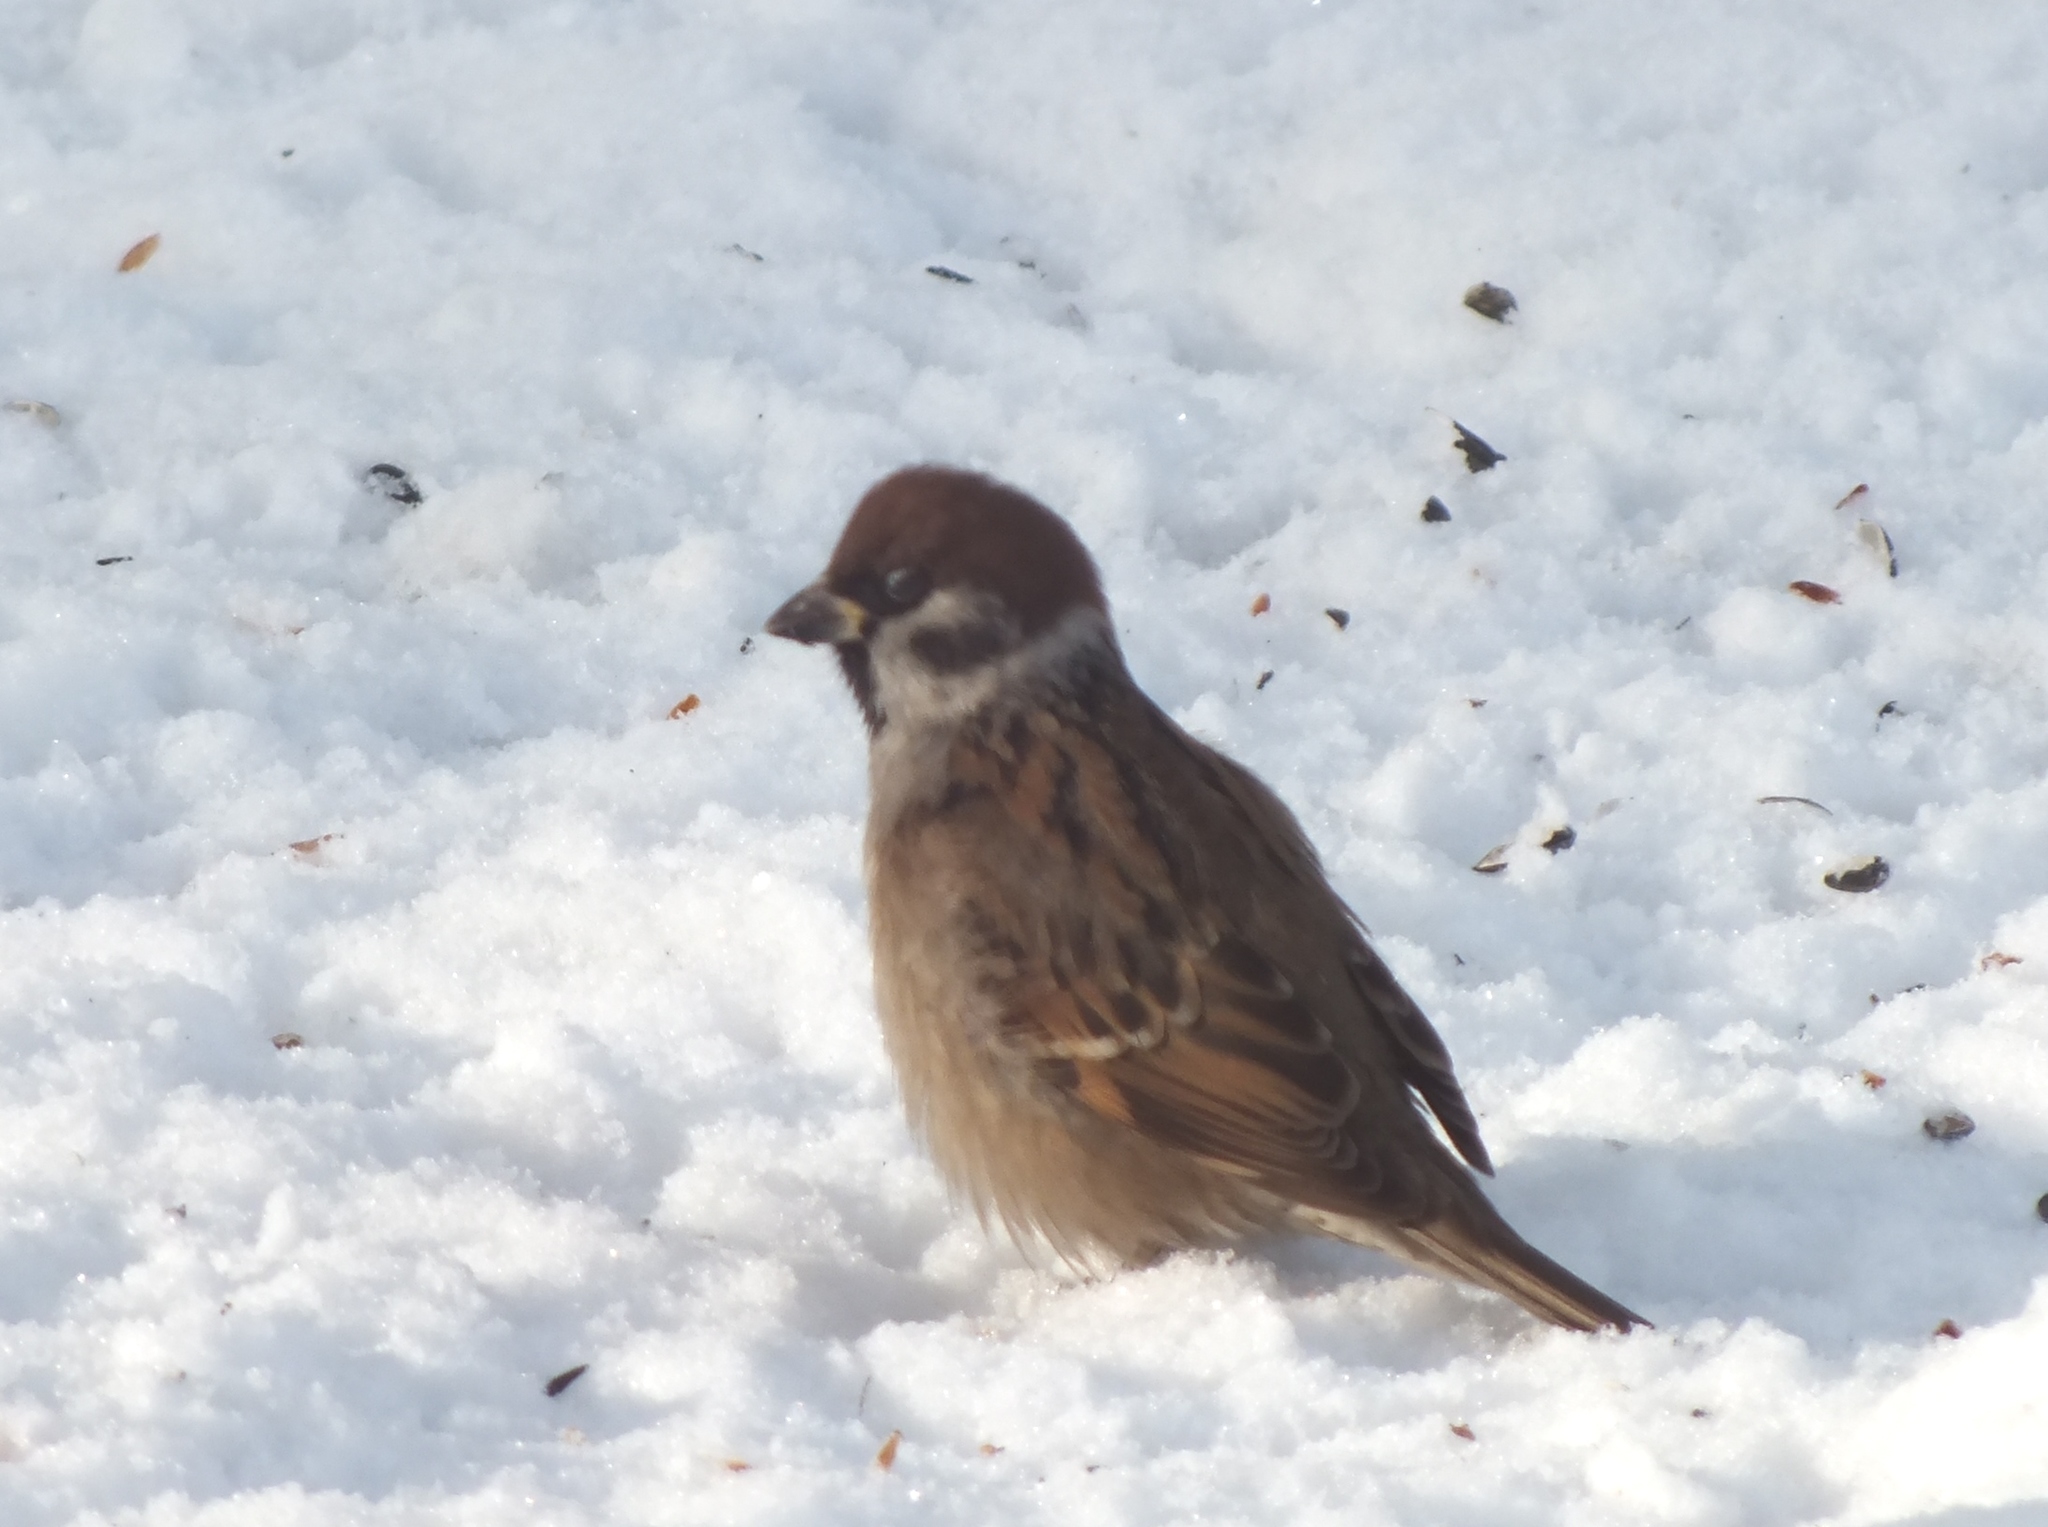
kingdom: Animalia
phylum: Chordata
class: Aves
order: Passeriformes
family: Passeridae
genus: Passer
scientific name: Passer montanus
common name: Eurasian tree sparrow
